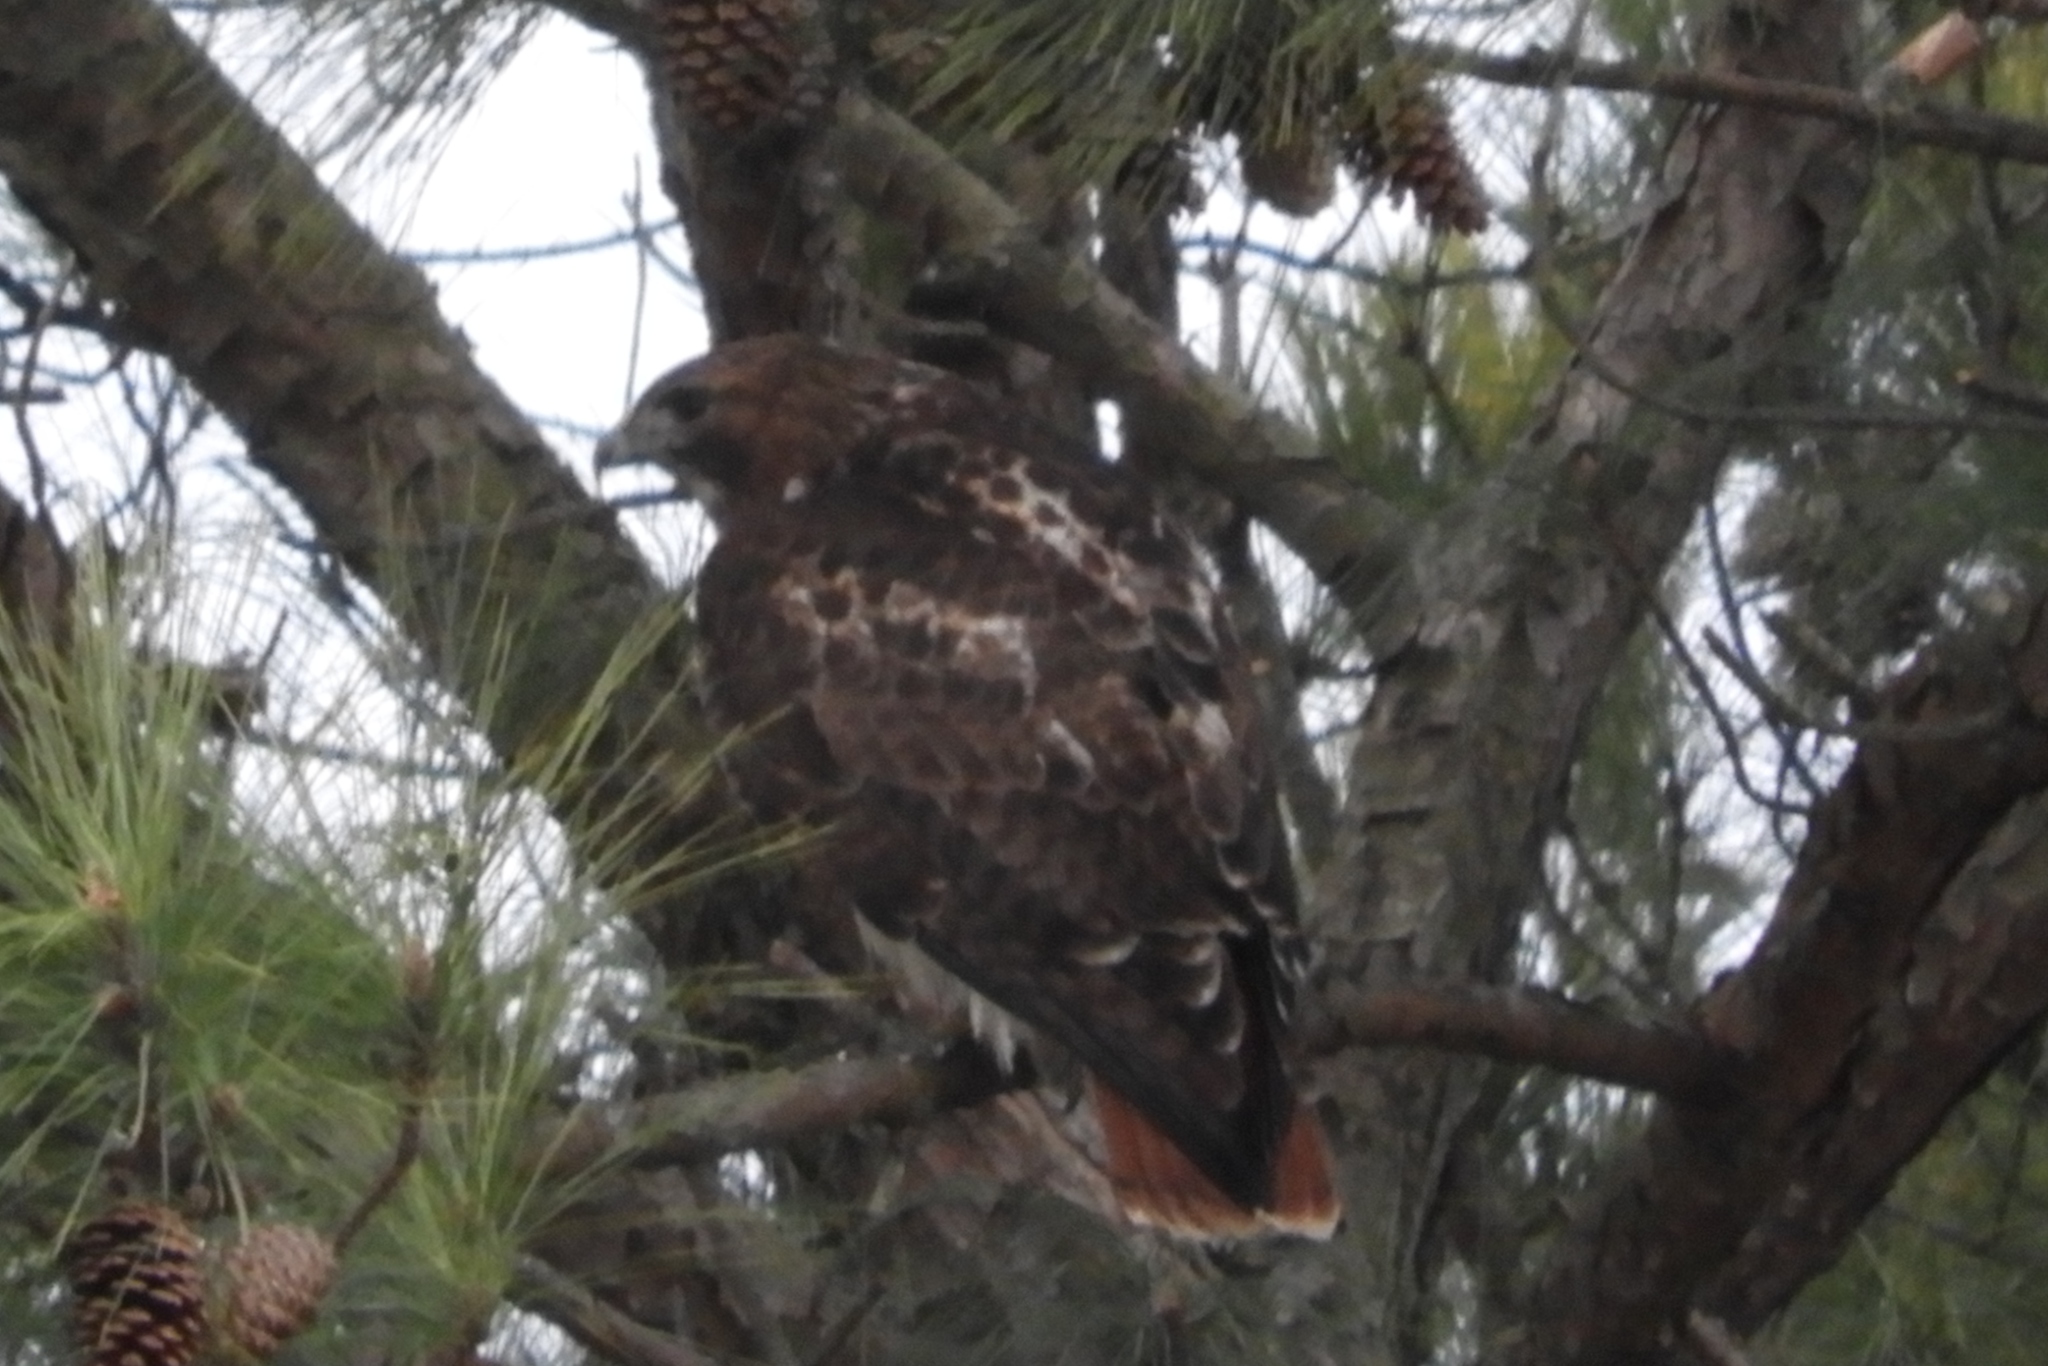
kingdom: Animalia
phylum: Chordata
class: Aves
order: Accipitriformes
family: Accipitridae
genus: Buteo
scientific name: Buteo jamaicensis
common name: Red-tailed hawk
